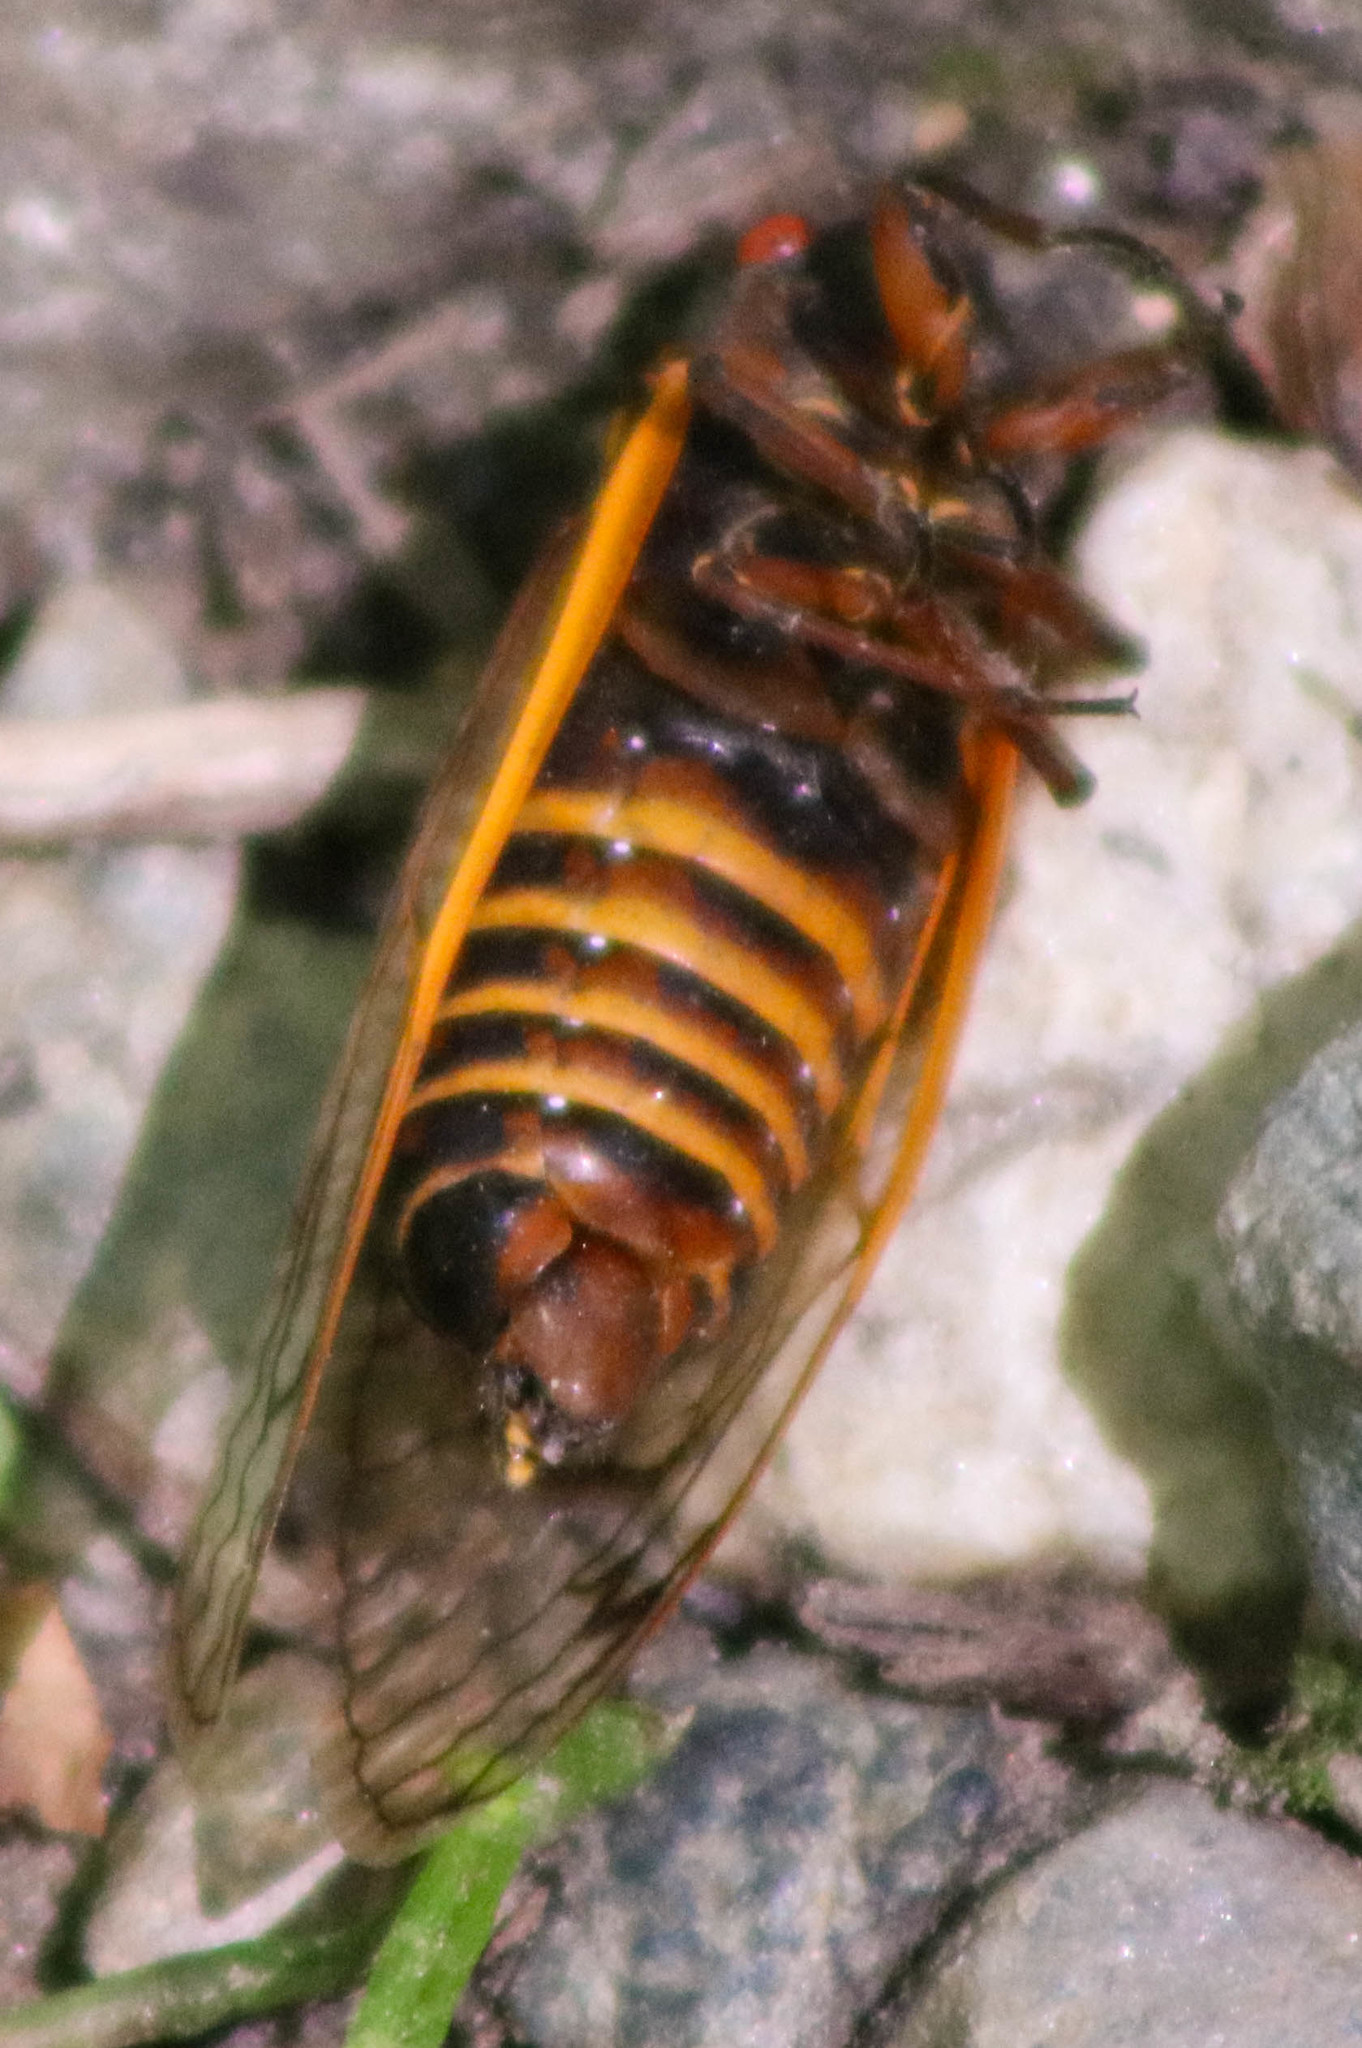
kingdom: Animalia
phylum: Arthropoda
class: Insecta
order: Hemiptera
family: Cicadidae
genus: Magicicada
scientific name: Magicicada septendecim
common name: Periodical cicada
